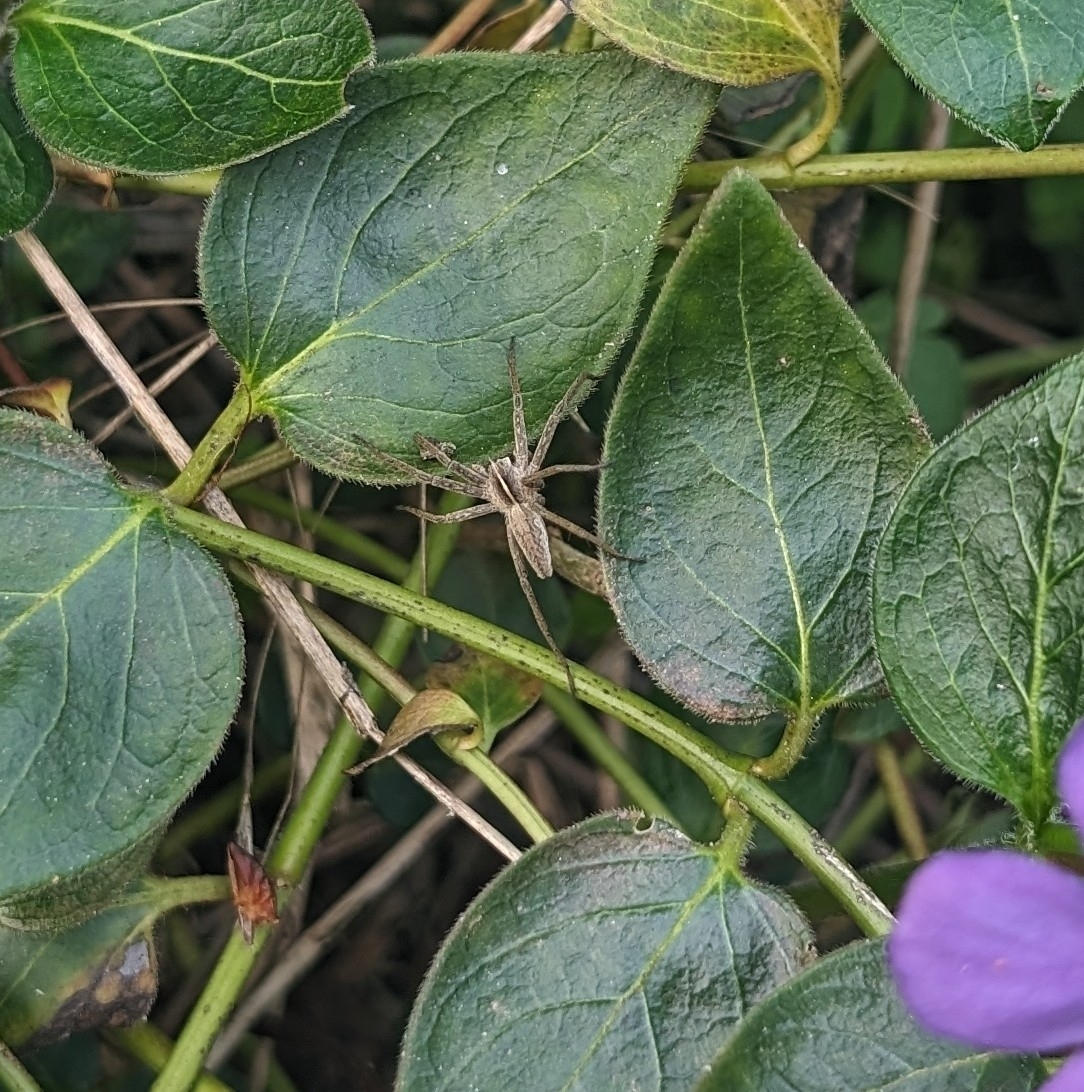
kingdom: Animalia
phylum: Arthropoda
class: Arachnida
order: Araneae
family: Pisauridae
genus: Pisaura
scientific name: Pisaura mirabilis
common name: Tent spider
